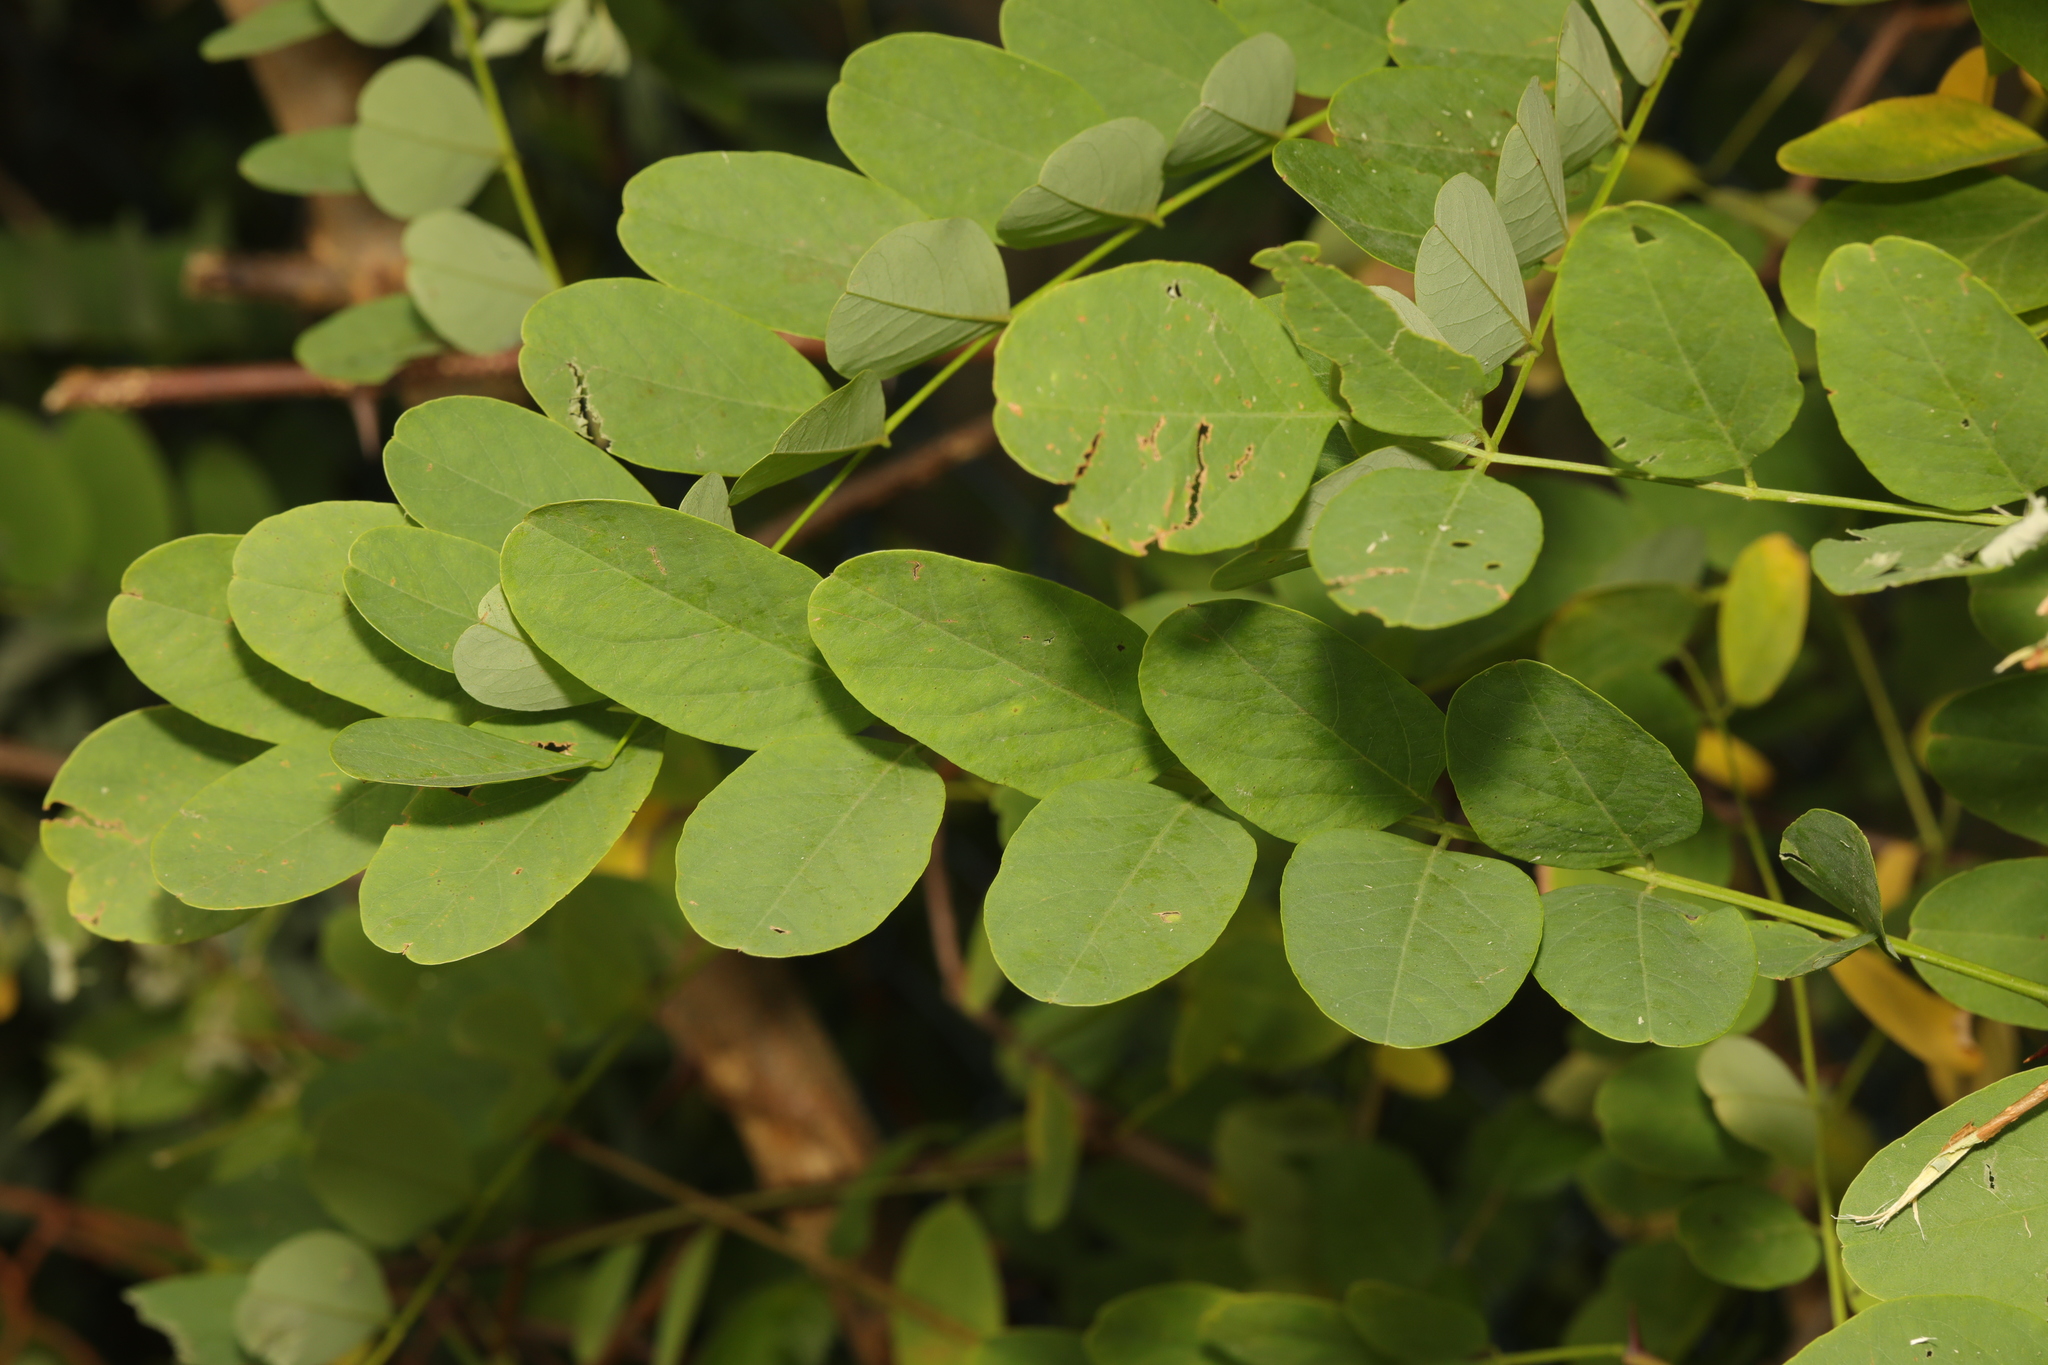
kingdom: Plantae
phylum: Tracheophyta
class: Magnoliopsida
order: Fabales
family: Fabaceae
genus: Robinia
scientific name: Robinia pseudoacacia
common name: Black locust
